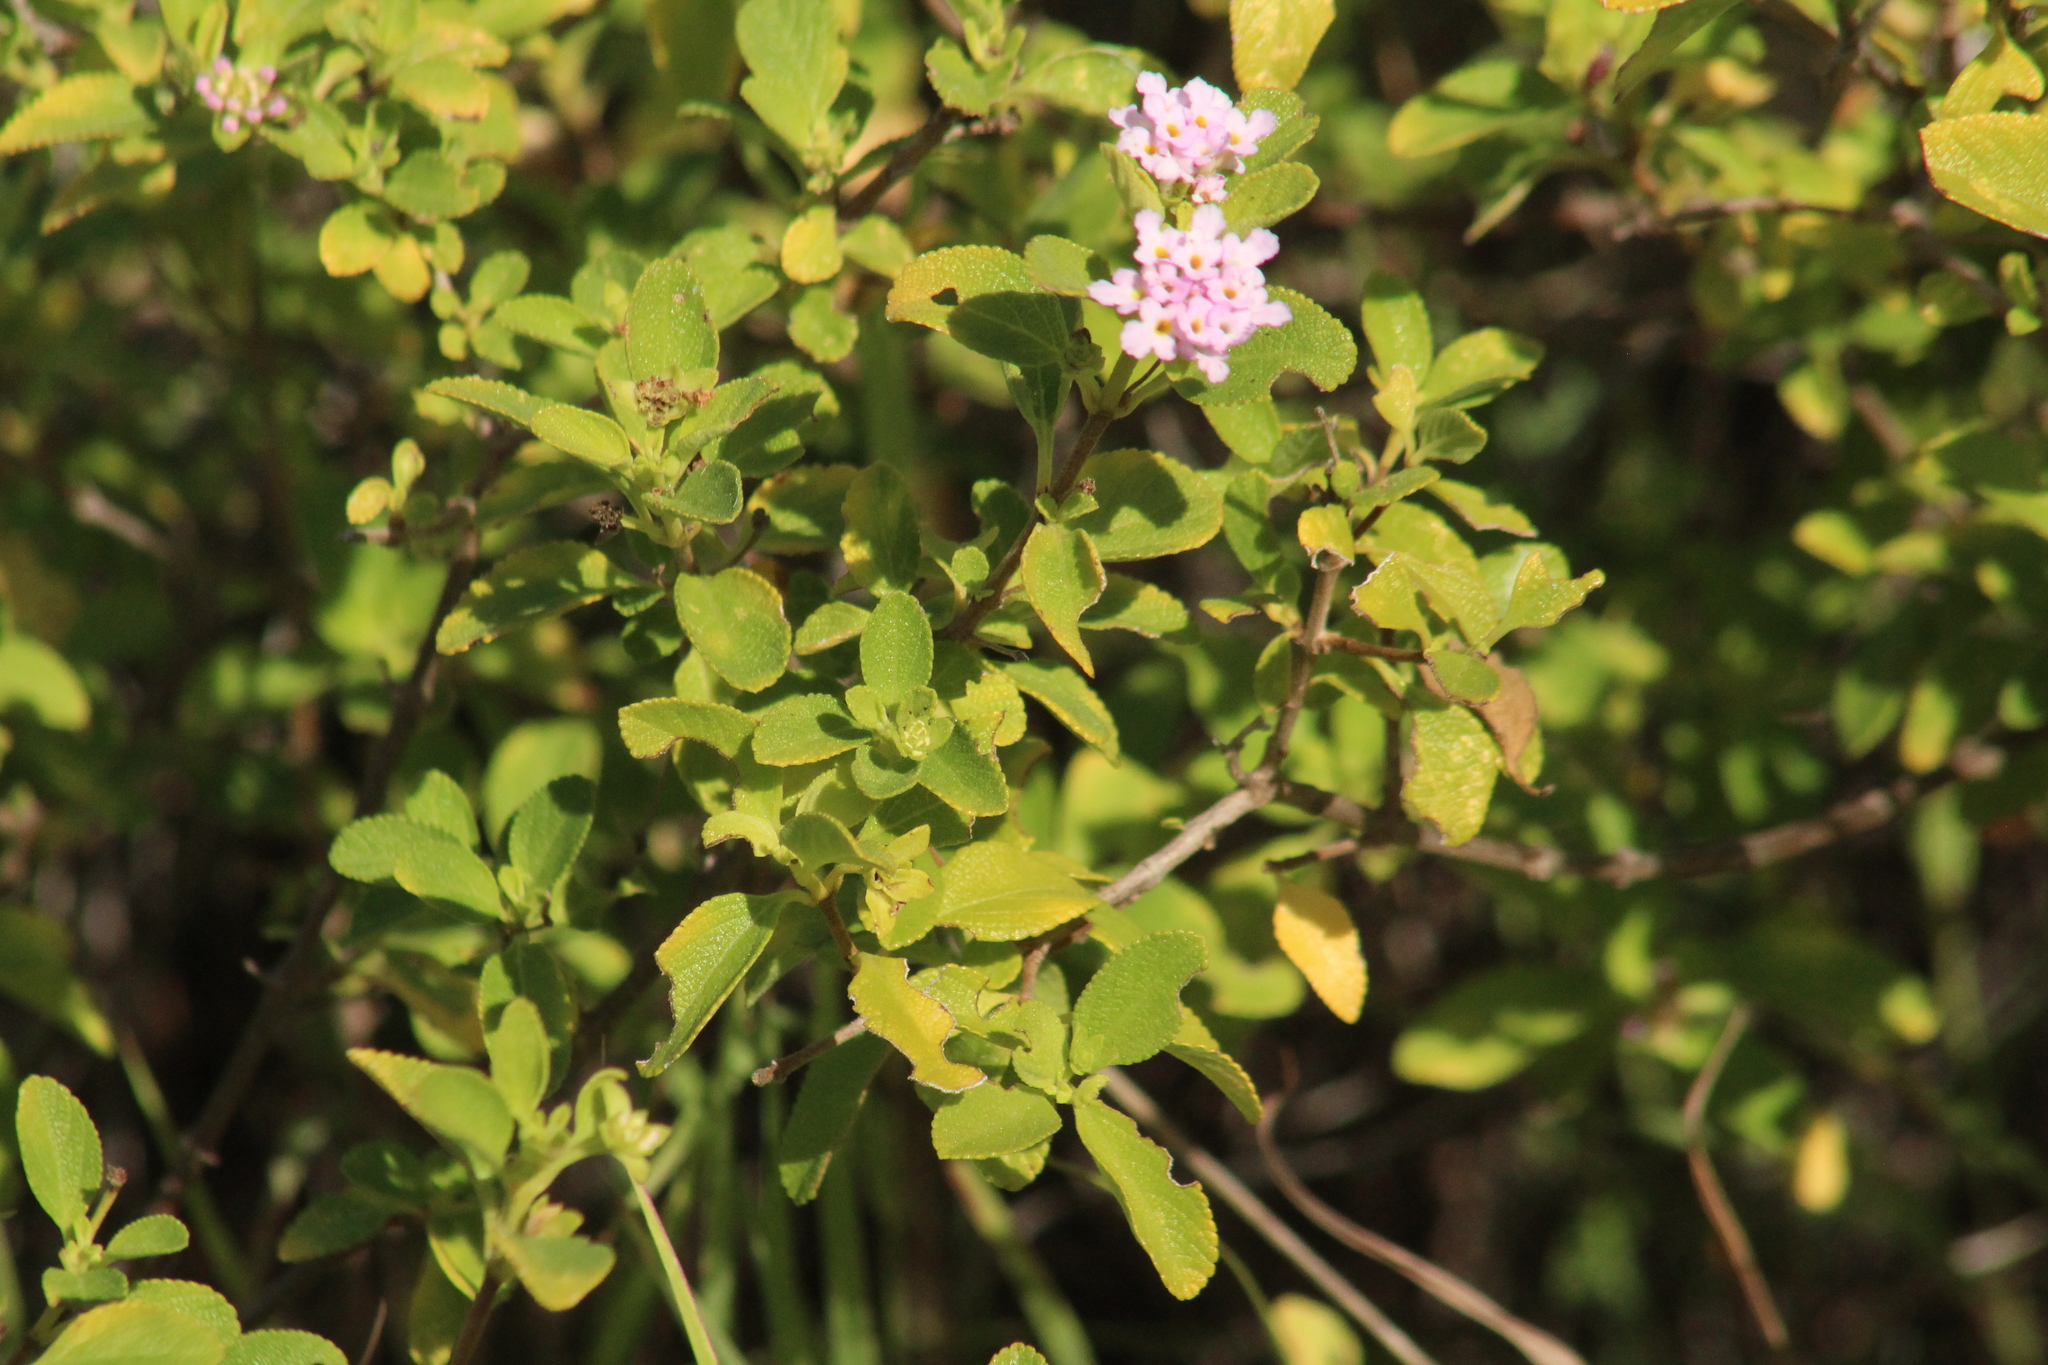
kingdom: Plantae
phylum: Tracheophyta
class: Magnoliopsida
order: Lamiales
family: Verbenaceae
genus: Lantana
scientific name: Lantana involucrata
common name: Black sage
